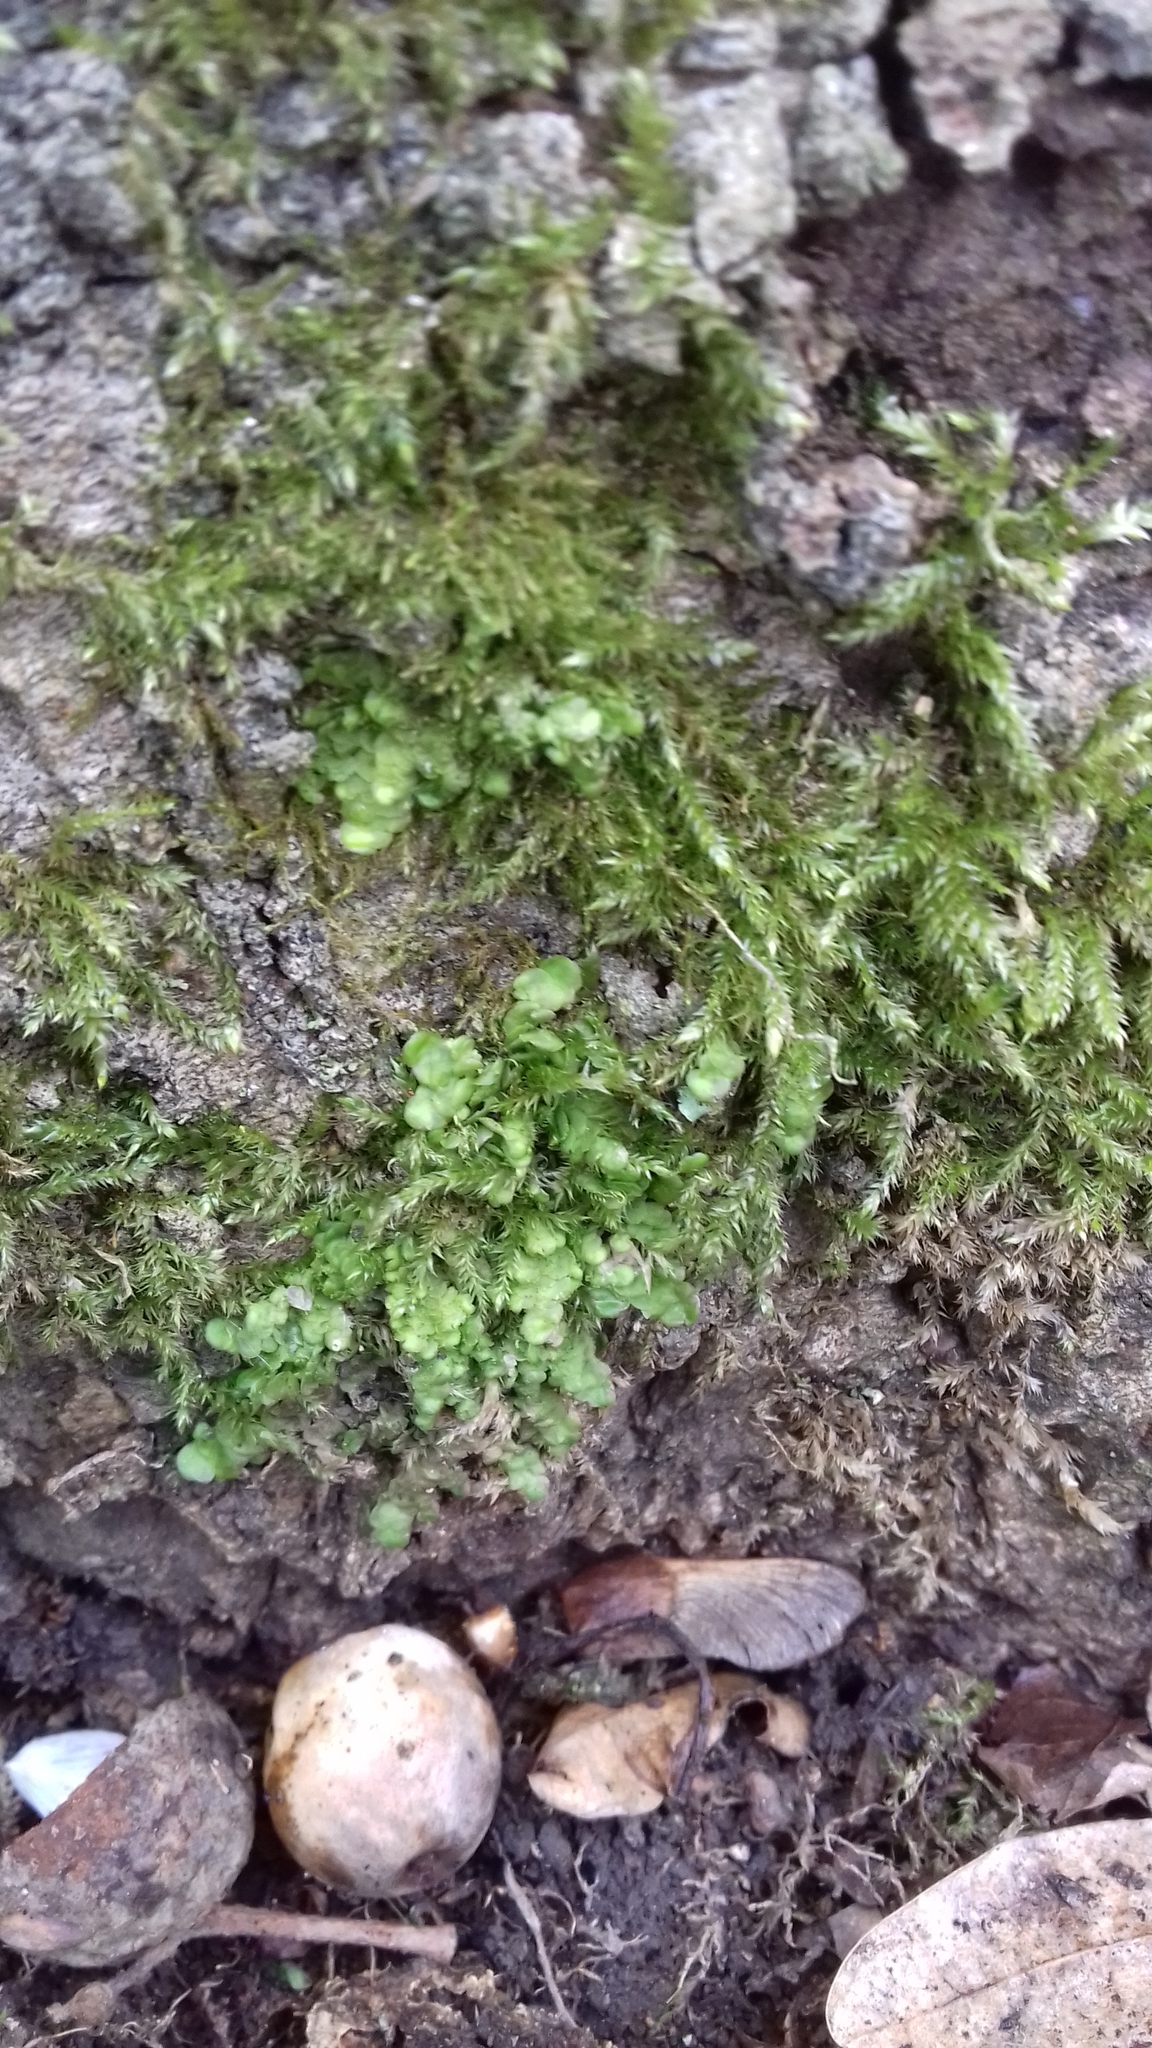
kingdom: Plantae
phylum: Marchantiophyta
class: Jungermanniopsida
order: Porellales
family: Radulaceae
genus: Radula
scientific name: Radula complanata
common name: Flat-leaved scalewort
